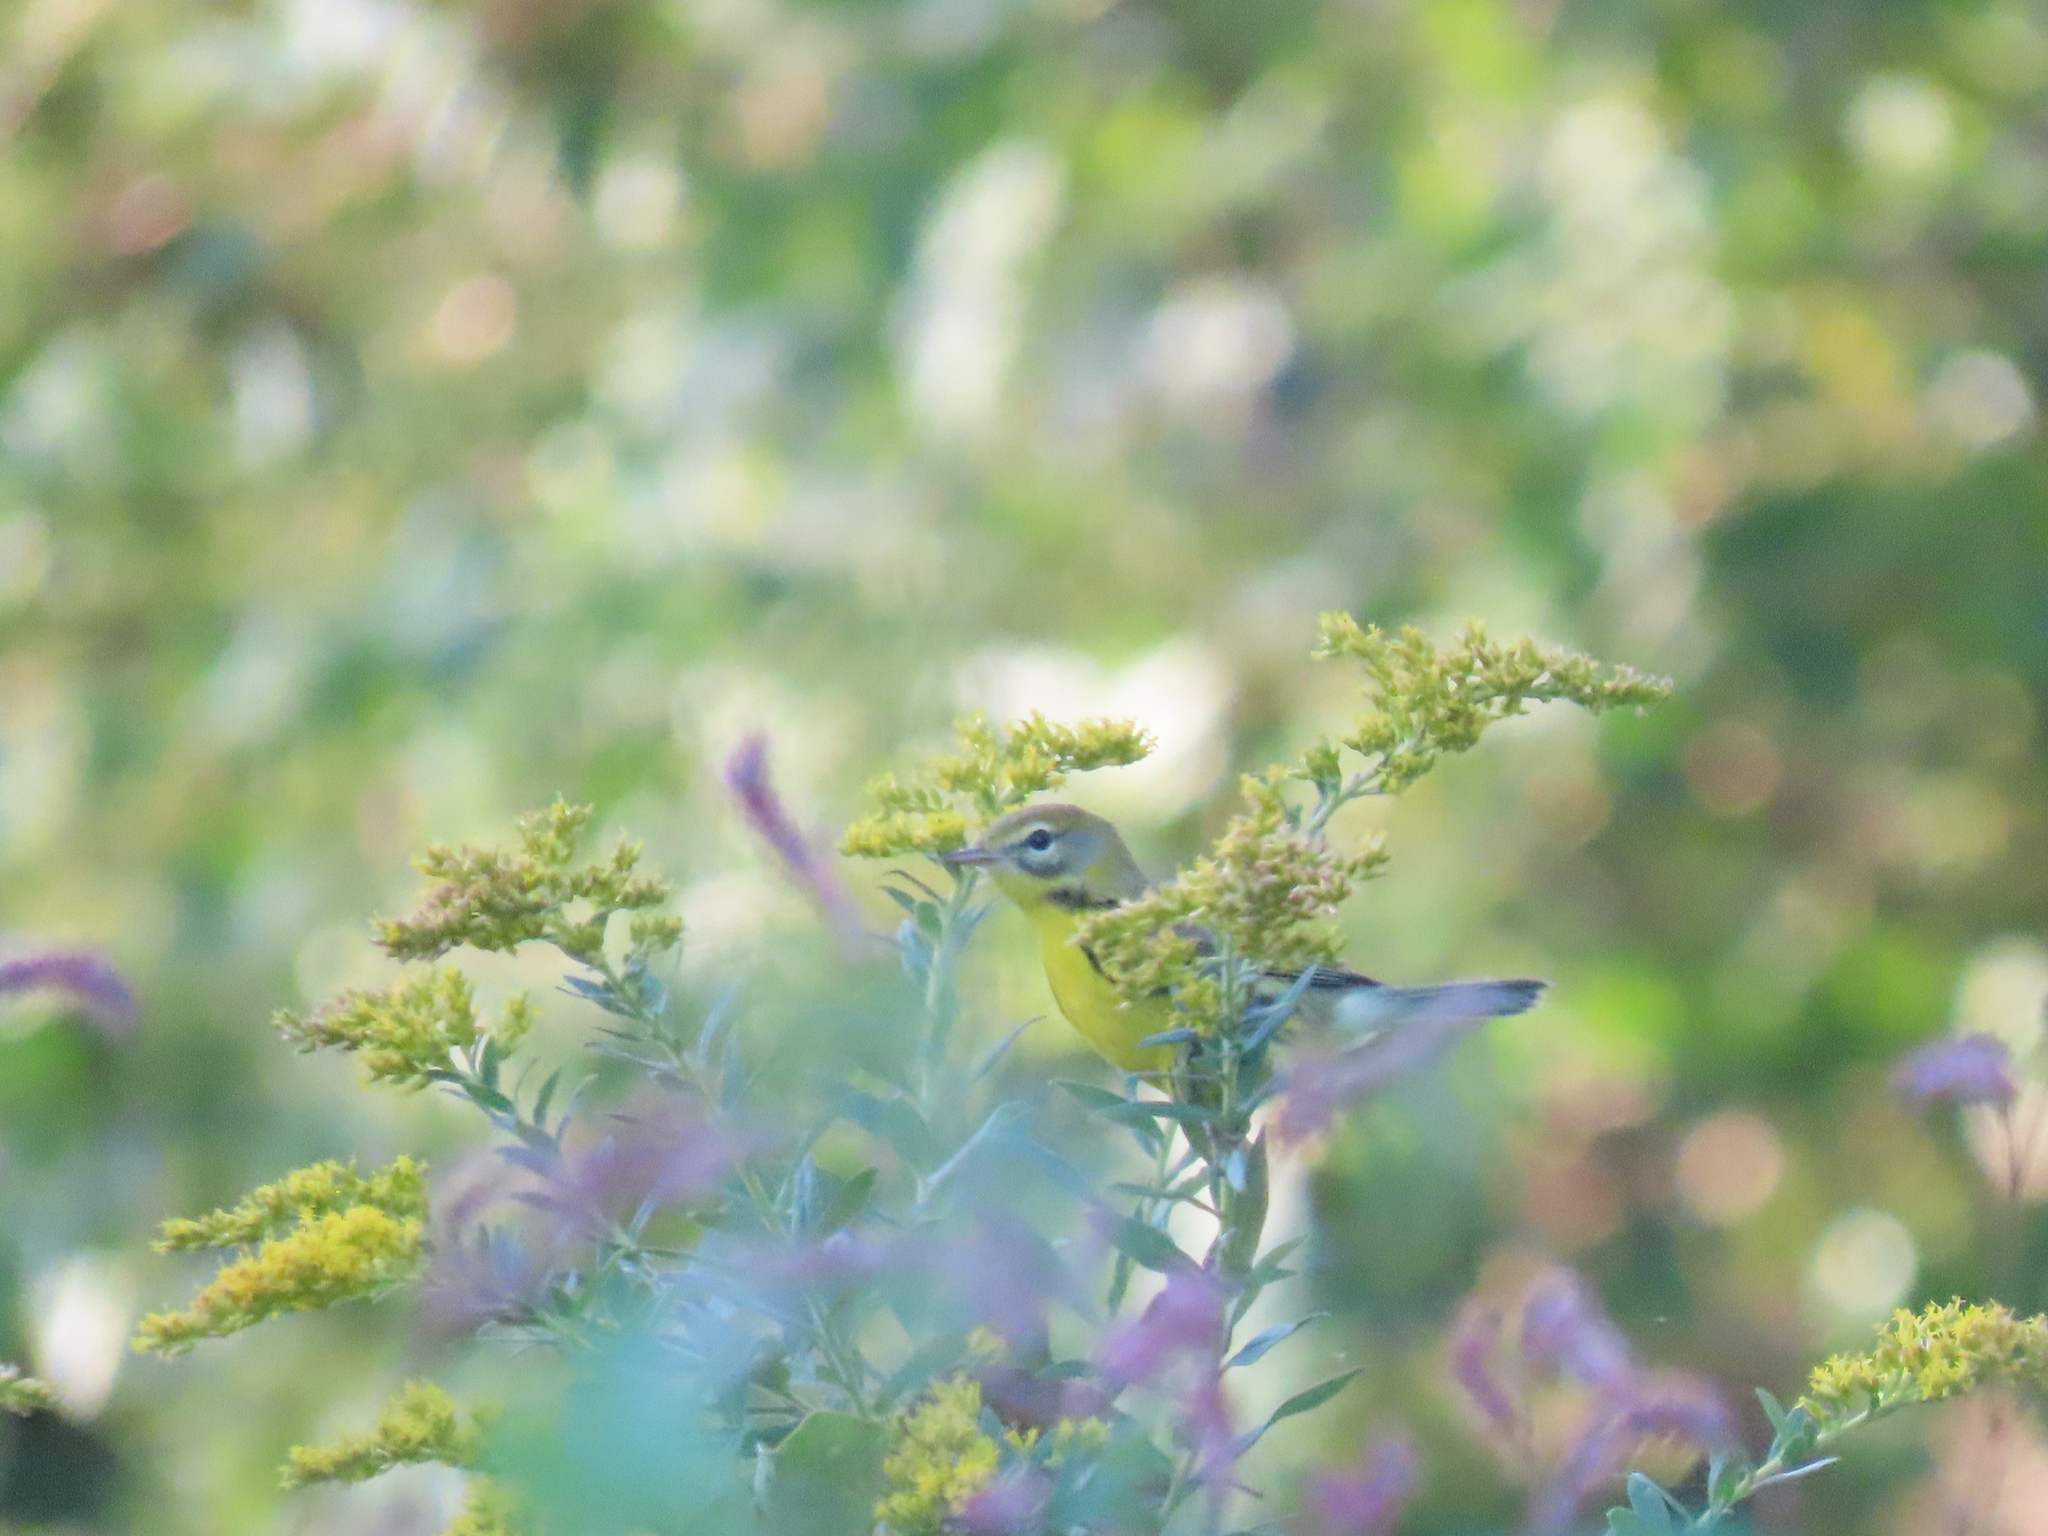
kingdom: Animalia
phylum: Chordata
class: Aves
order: Passeriformes
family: Parulidae
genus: Setophaga
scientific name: Setophaga discolor
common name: Prairie warbler
